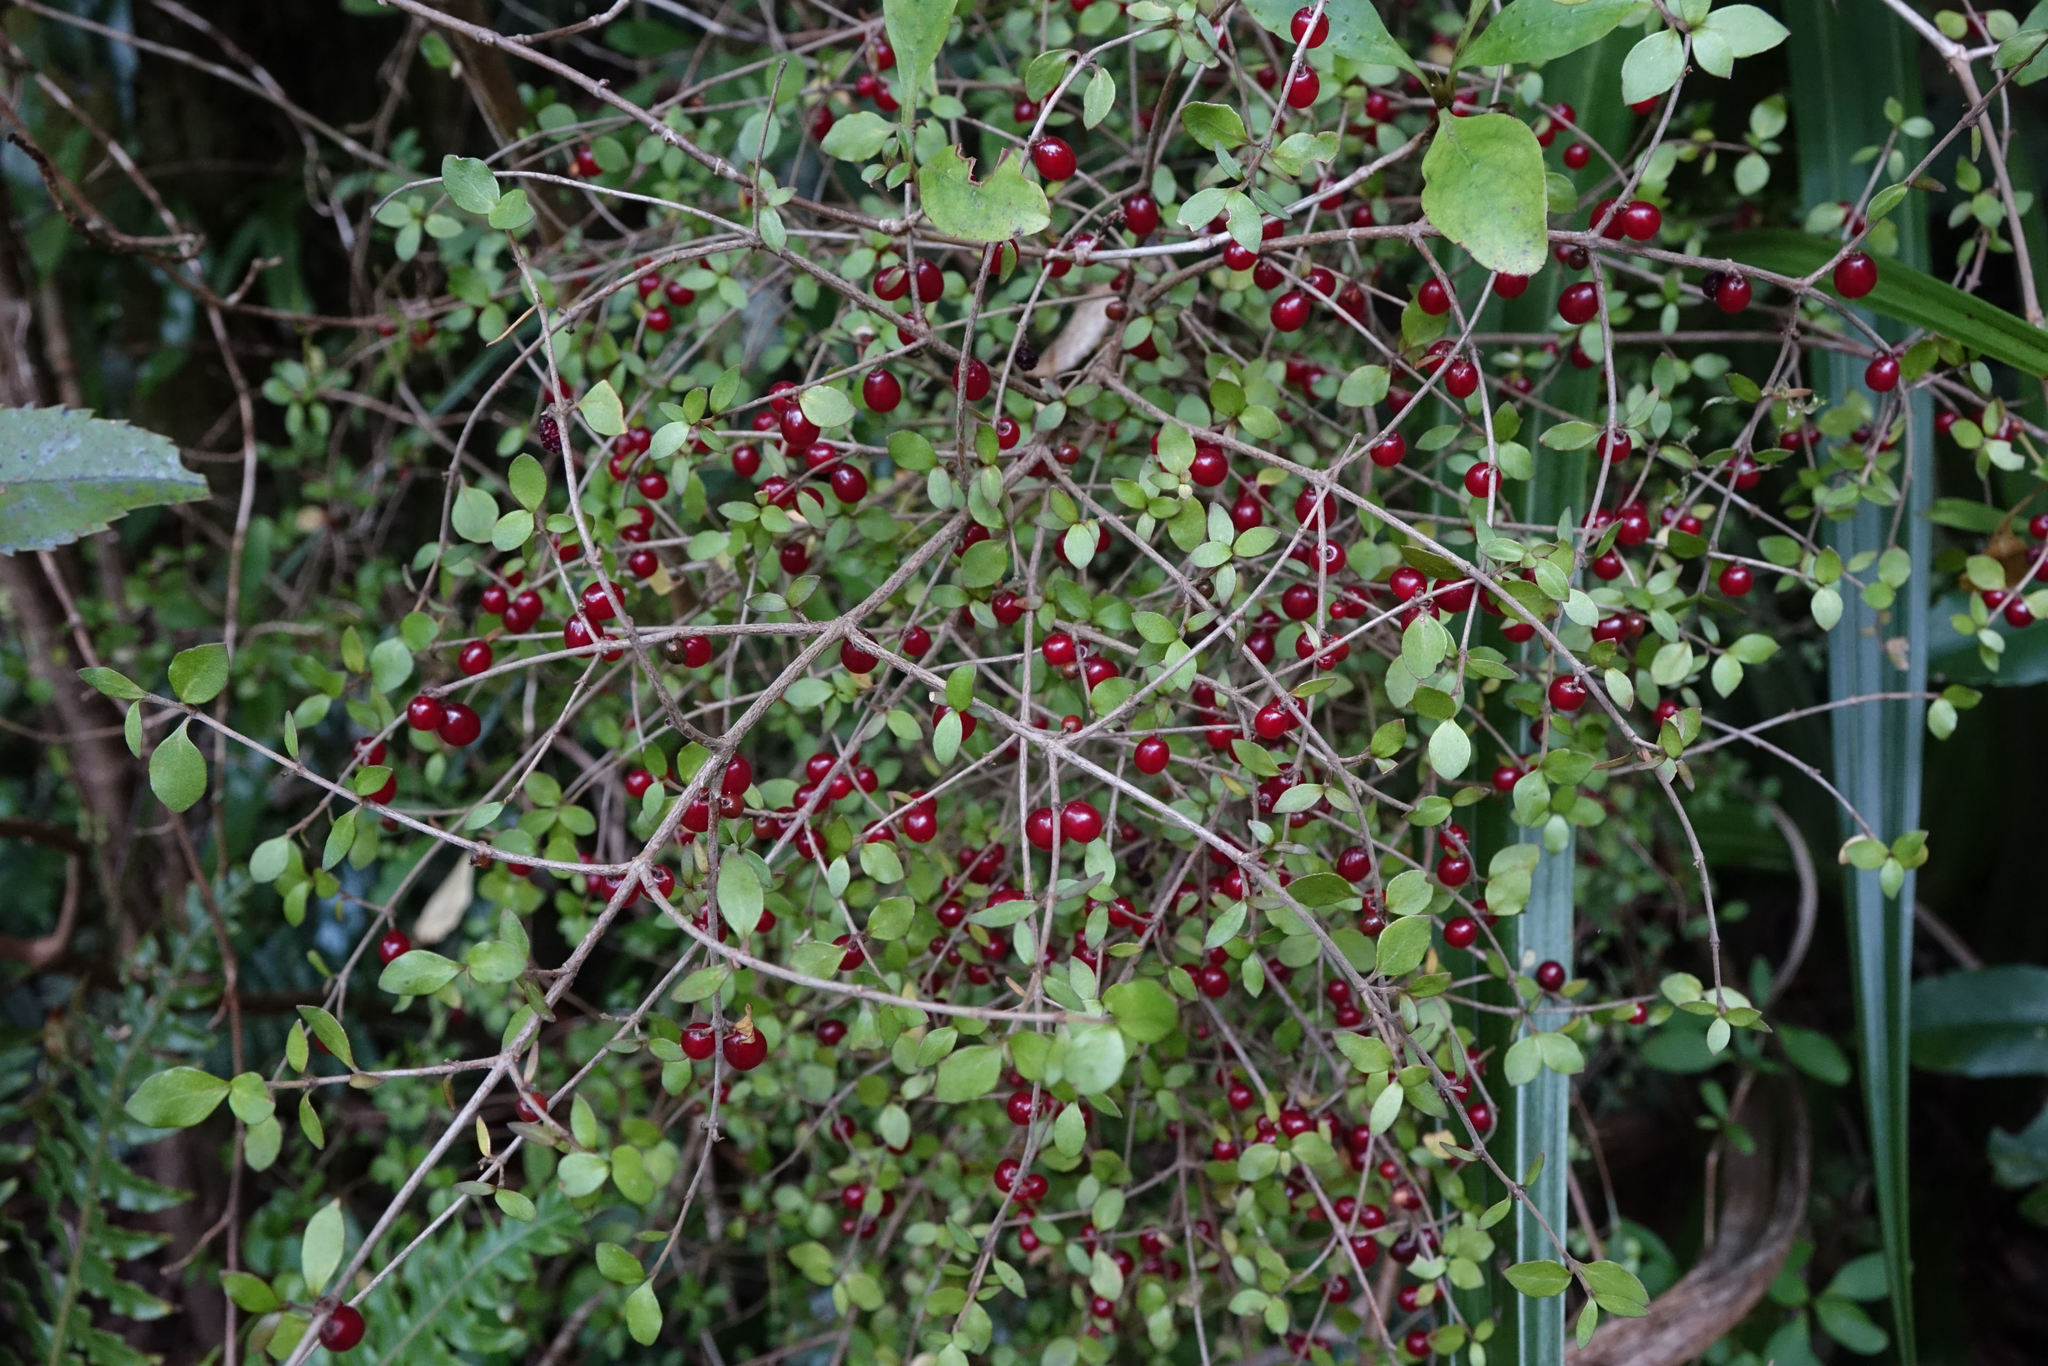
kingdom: Plantae
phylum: Tracheophyta
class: Magnoliopsida
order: Gentianales
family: Rubiaceae
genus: Coprosma
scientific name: Coprosma rhamnoides
